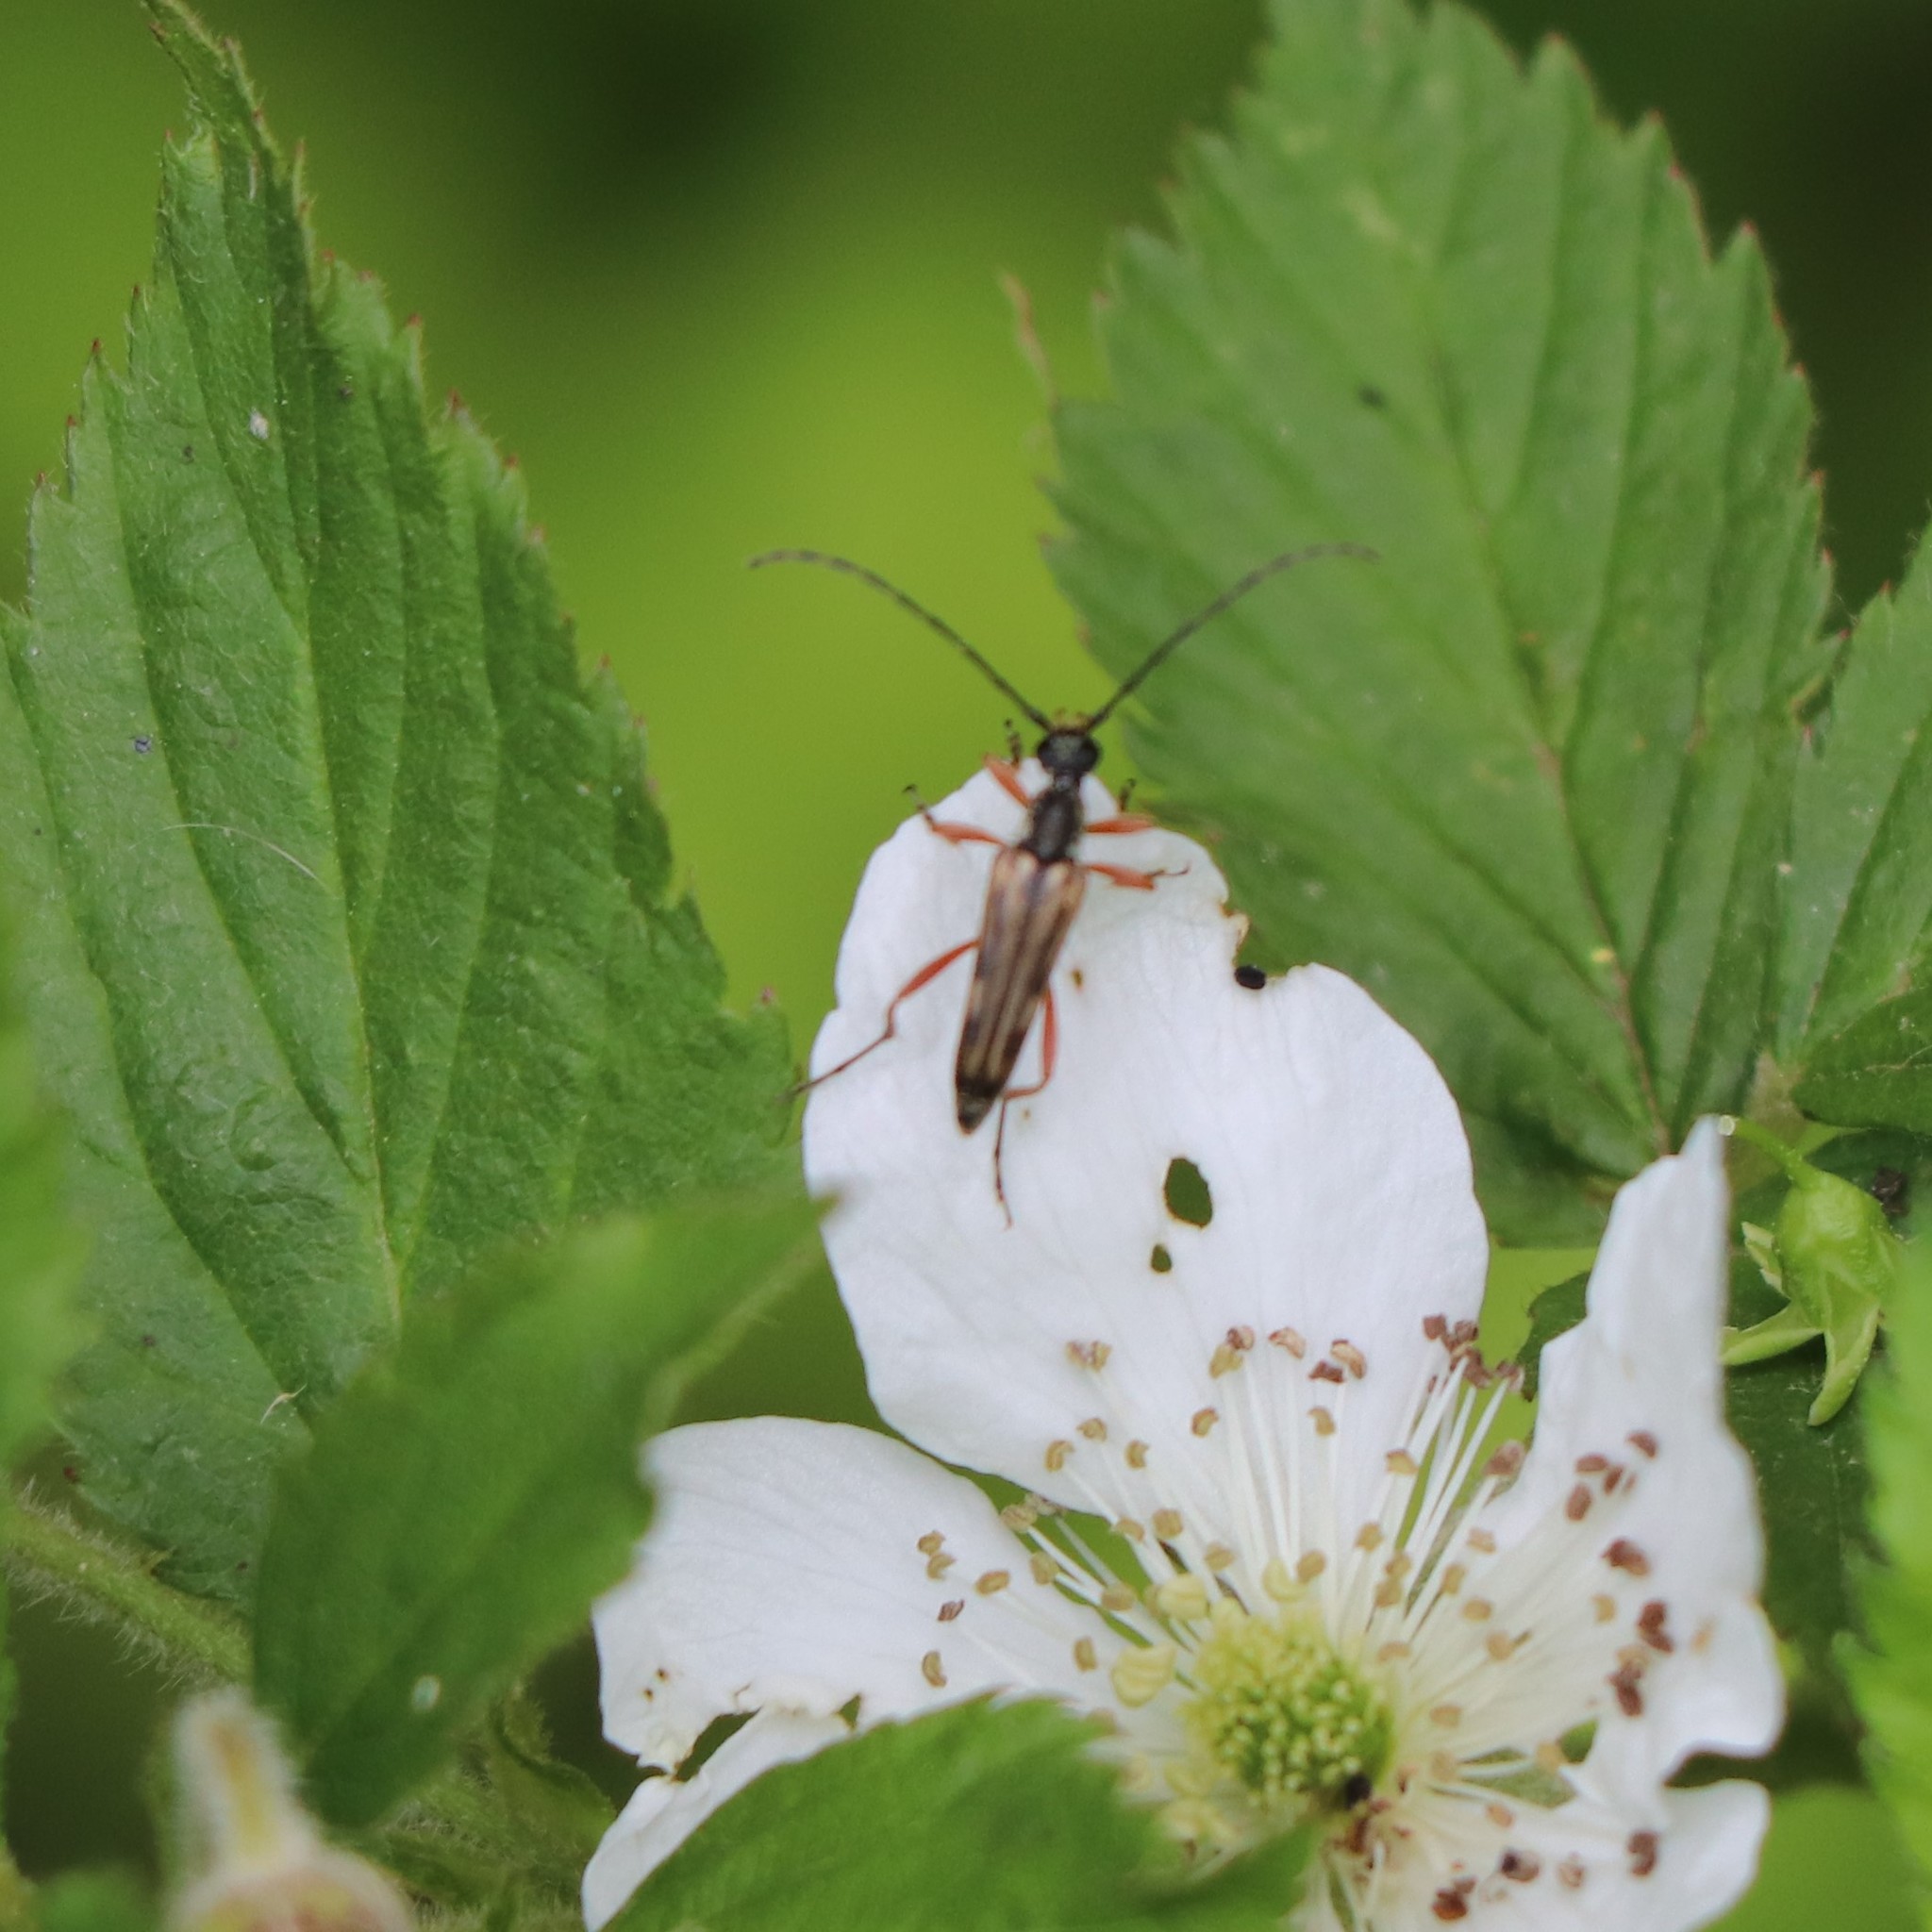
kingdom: Animalia
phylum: Arthropoda
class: Insecta
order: Coleoptera
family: Cerambycidae
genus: Analeptura
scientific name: Analeptura lineola
